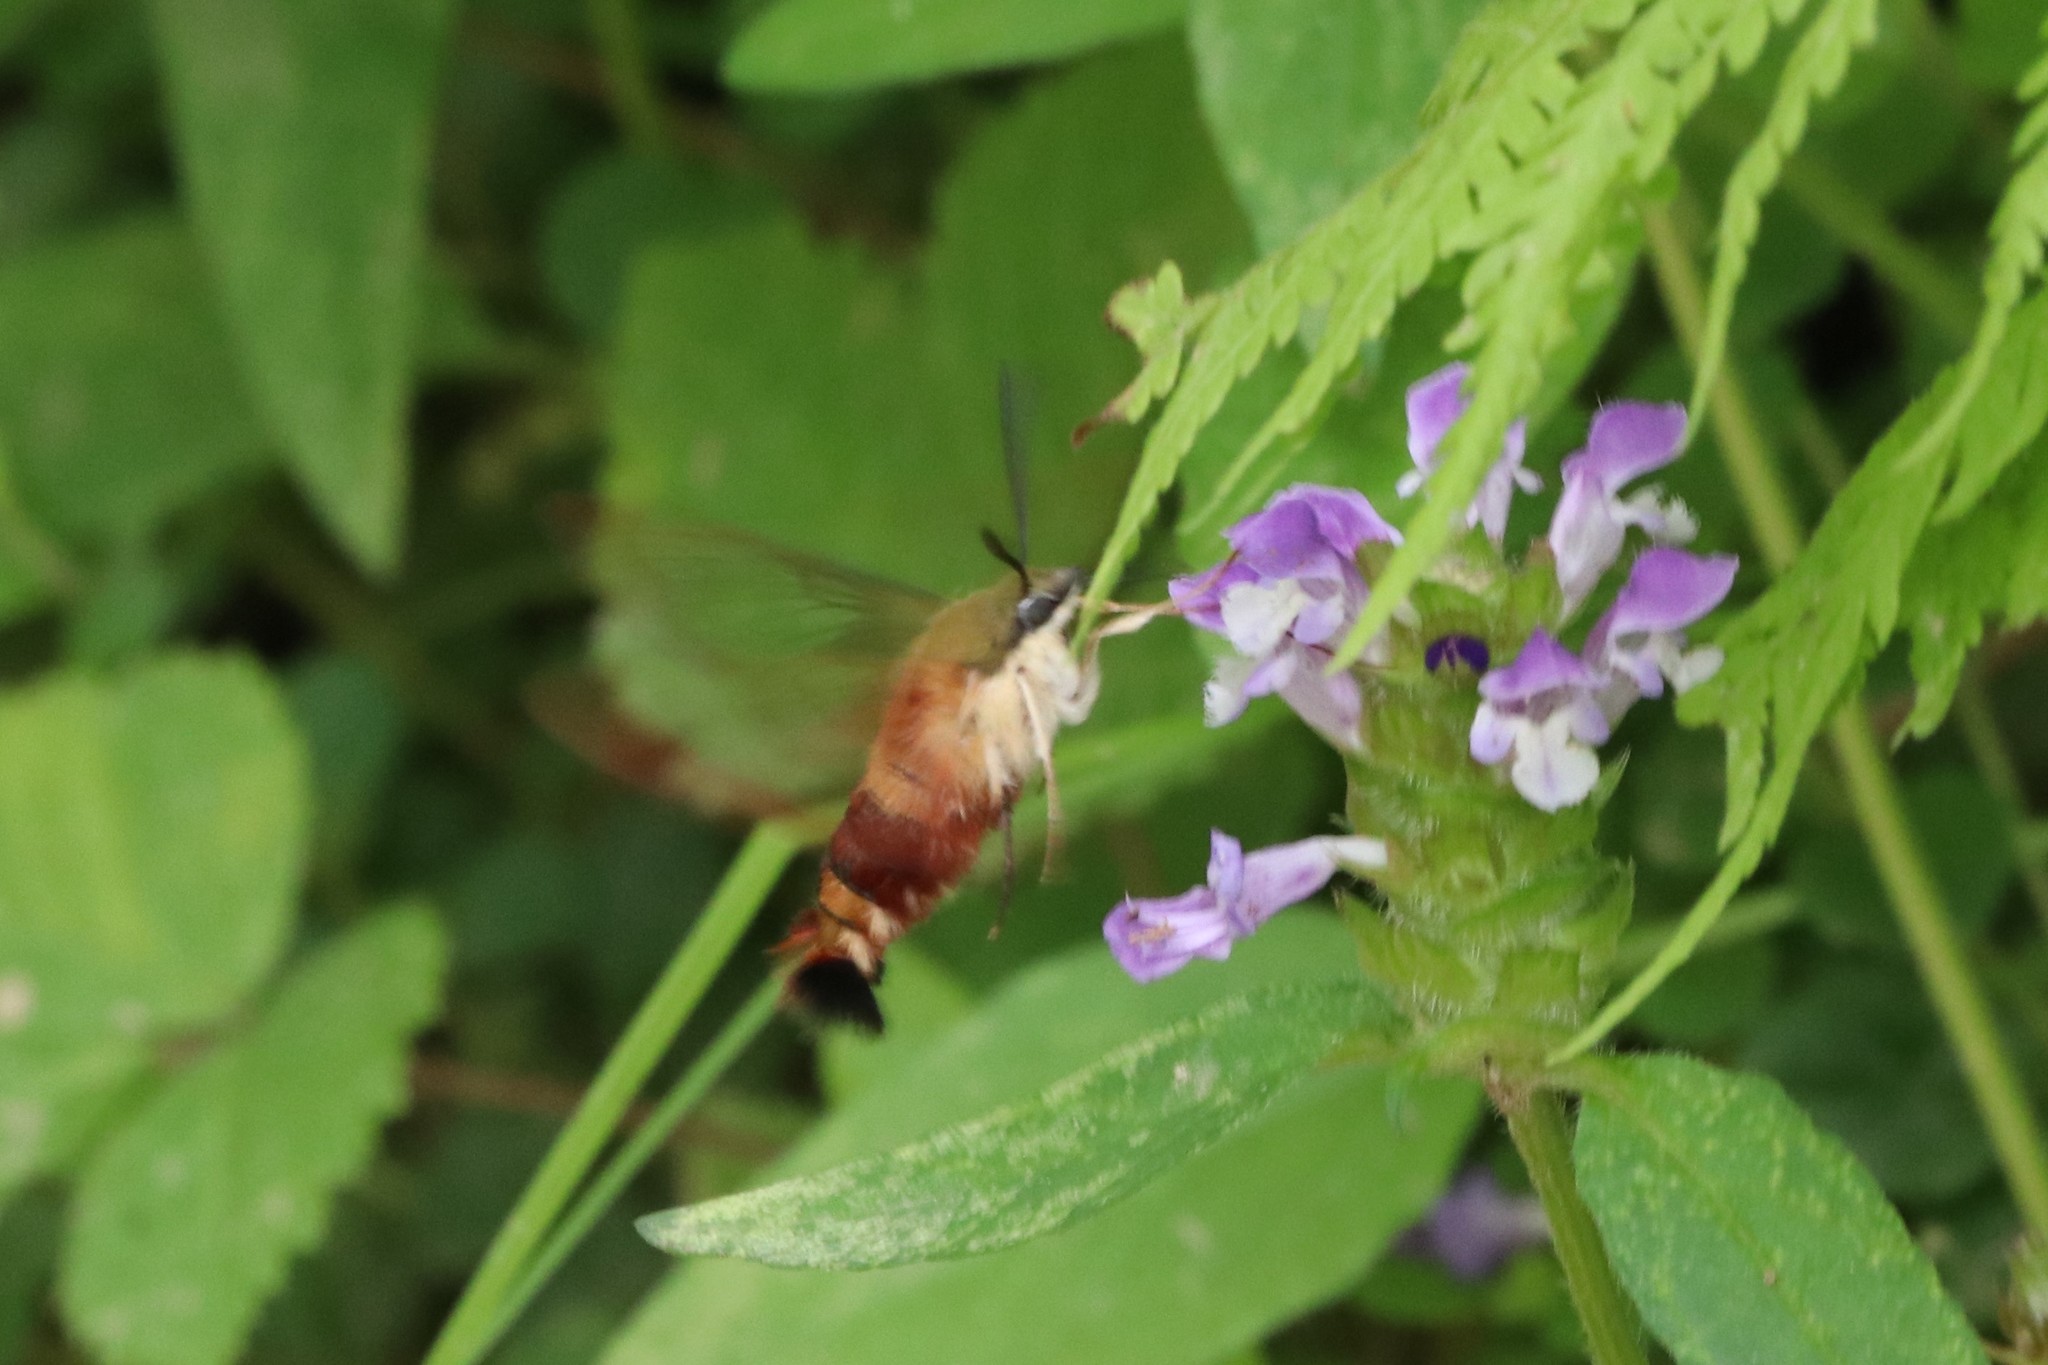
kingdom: Animalia
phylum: Arthropoda
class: Insecta
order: Lepidoptera
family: Sphingidae
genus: Hemaris
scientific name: Hemaris thysbe
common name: Common clear-wing
